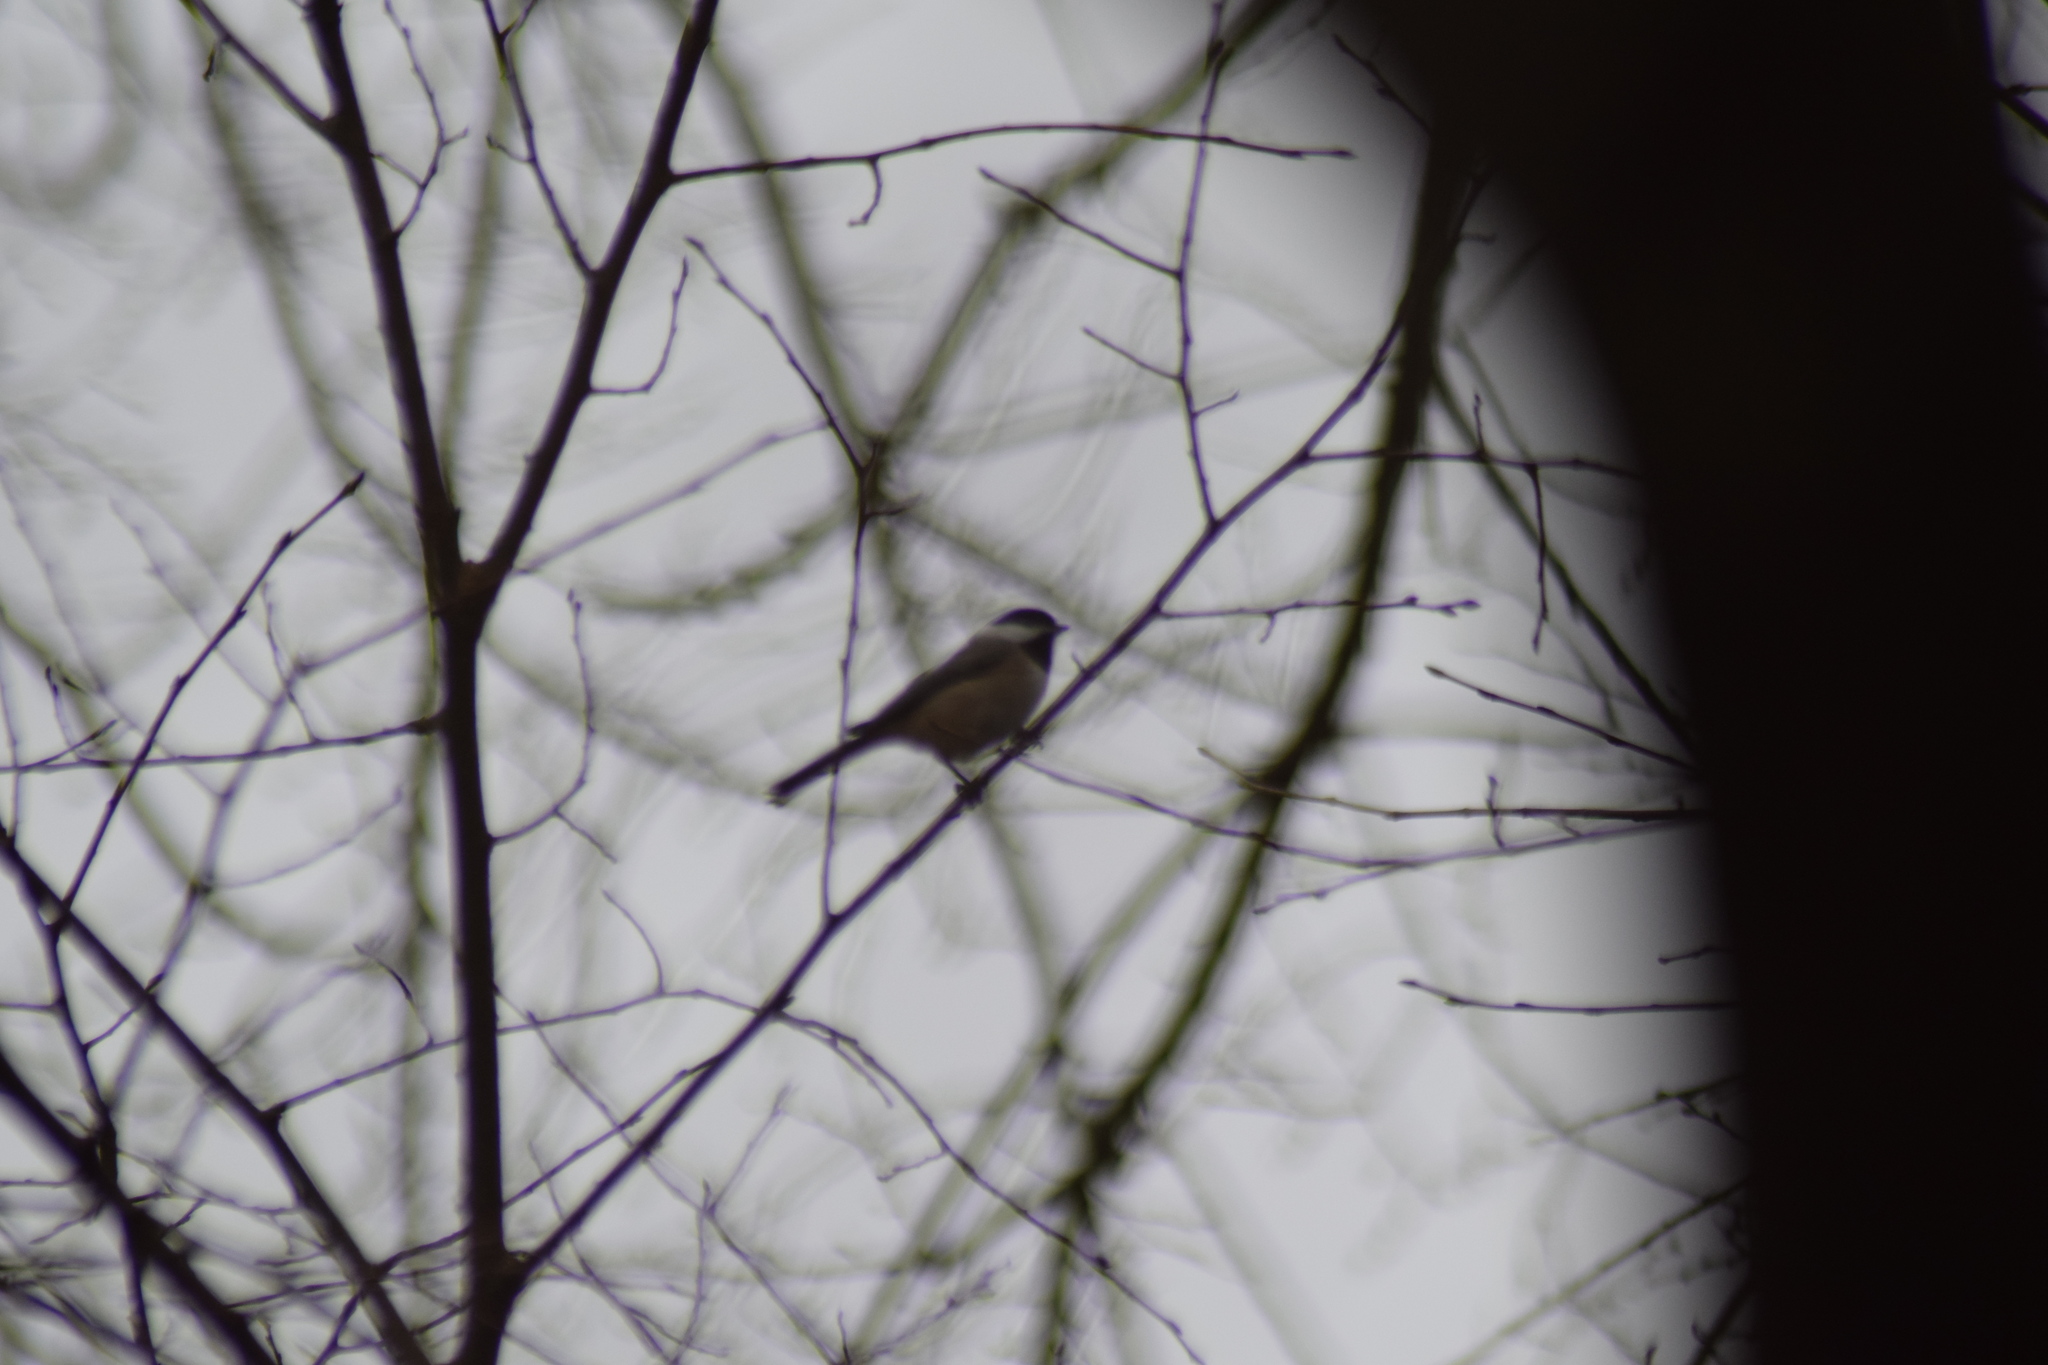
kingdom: Animalia
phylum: Chordata
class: Aves
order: Passeriformes
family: Paridae
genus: Poecile
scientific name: Poecile carolinensis
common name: Carolina chickadee
